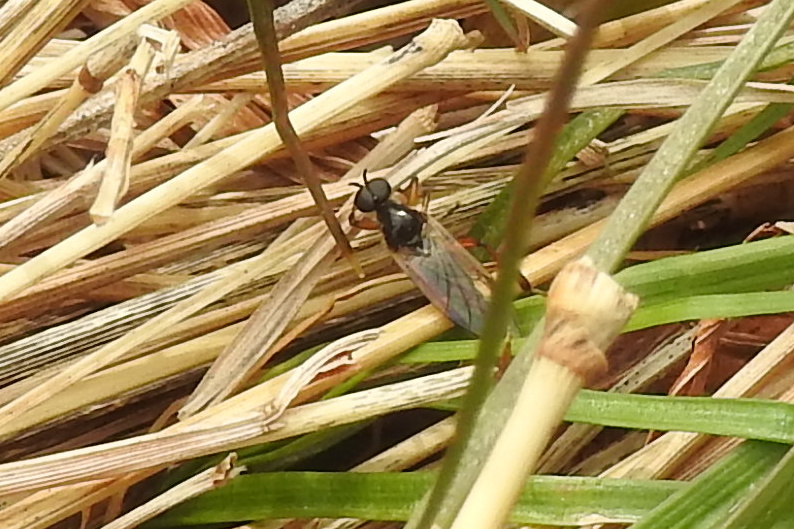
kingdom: Animalia
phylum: Arthropoda
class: Insecta
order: Diptera
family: Bibionidae
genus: Bibio
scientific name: Bibio
